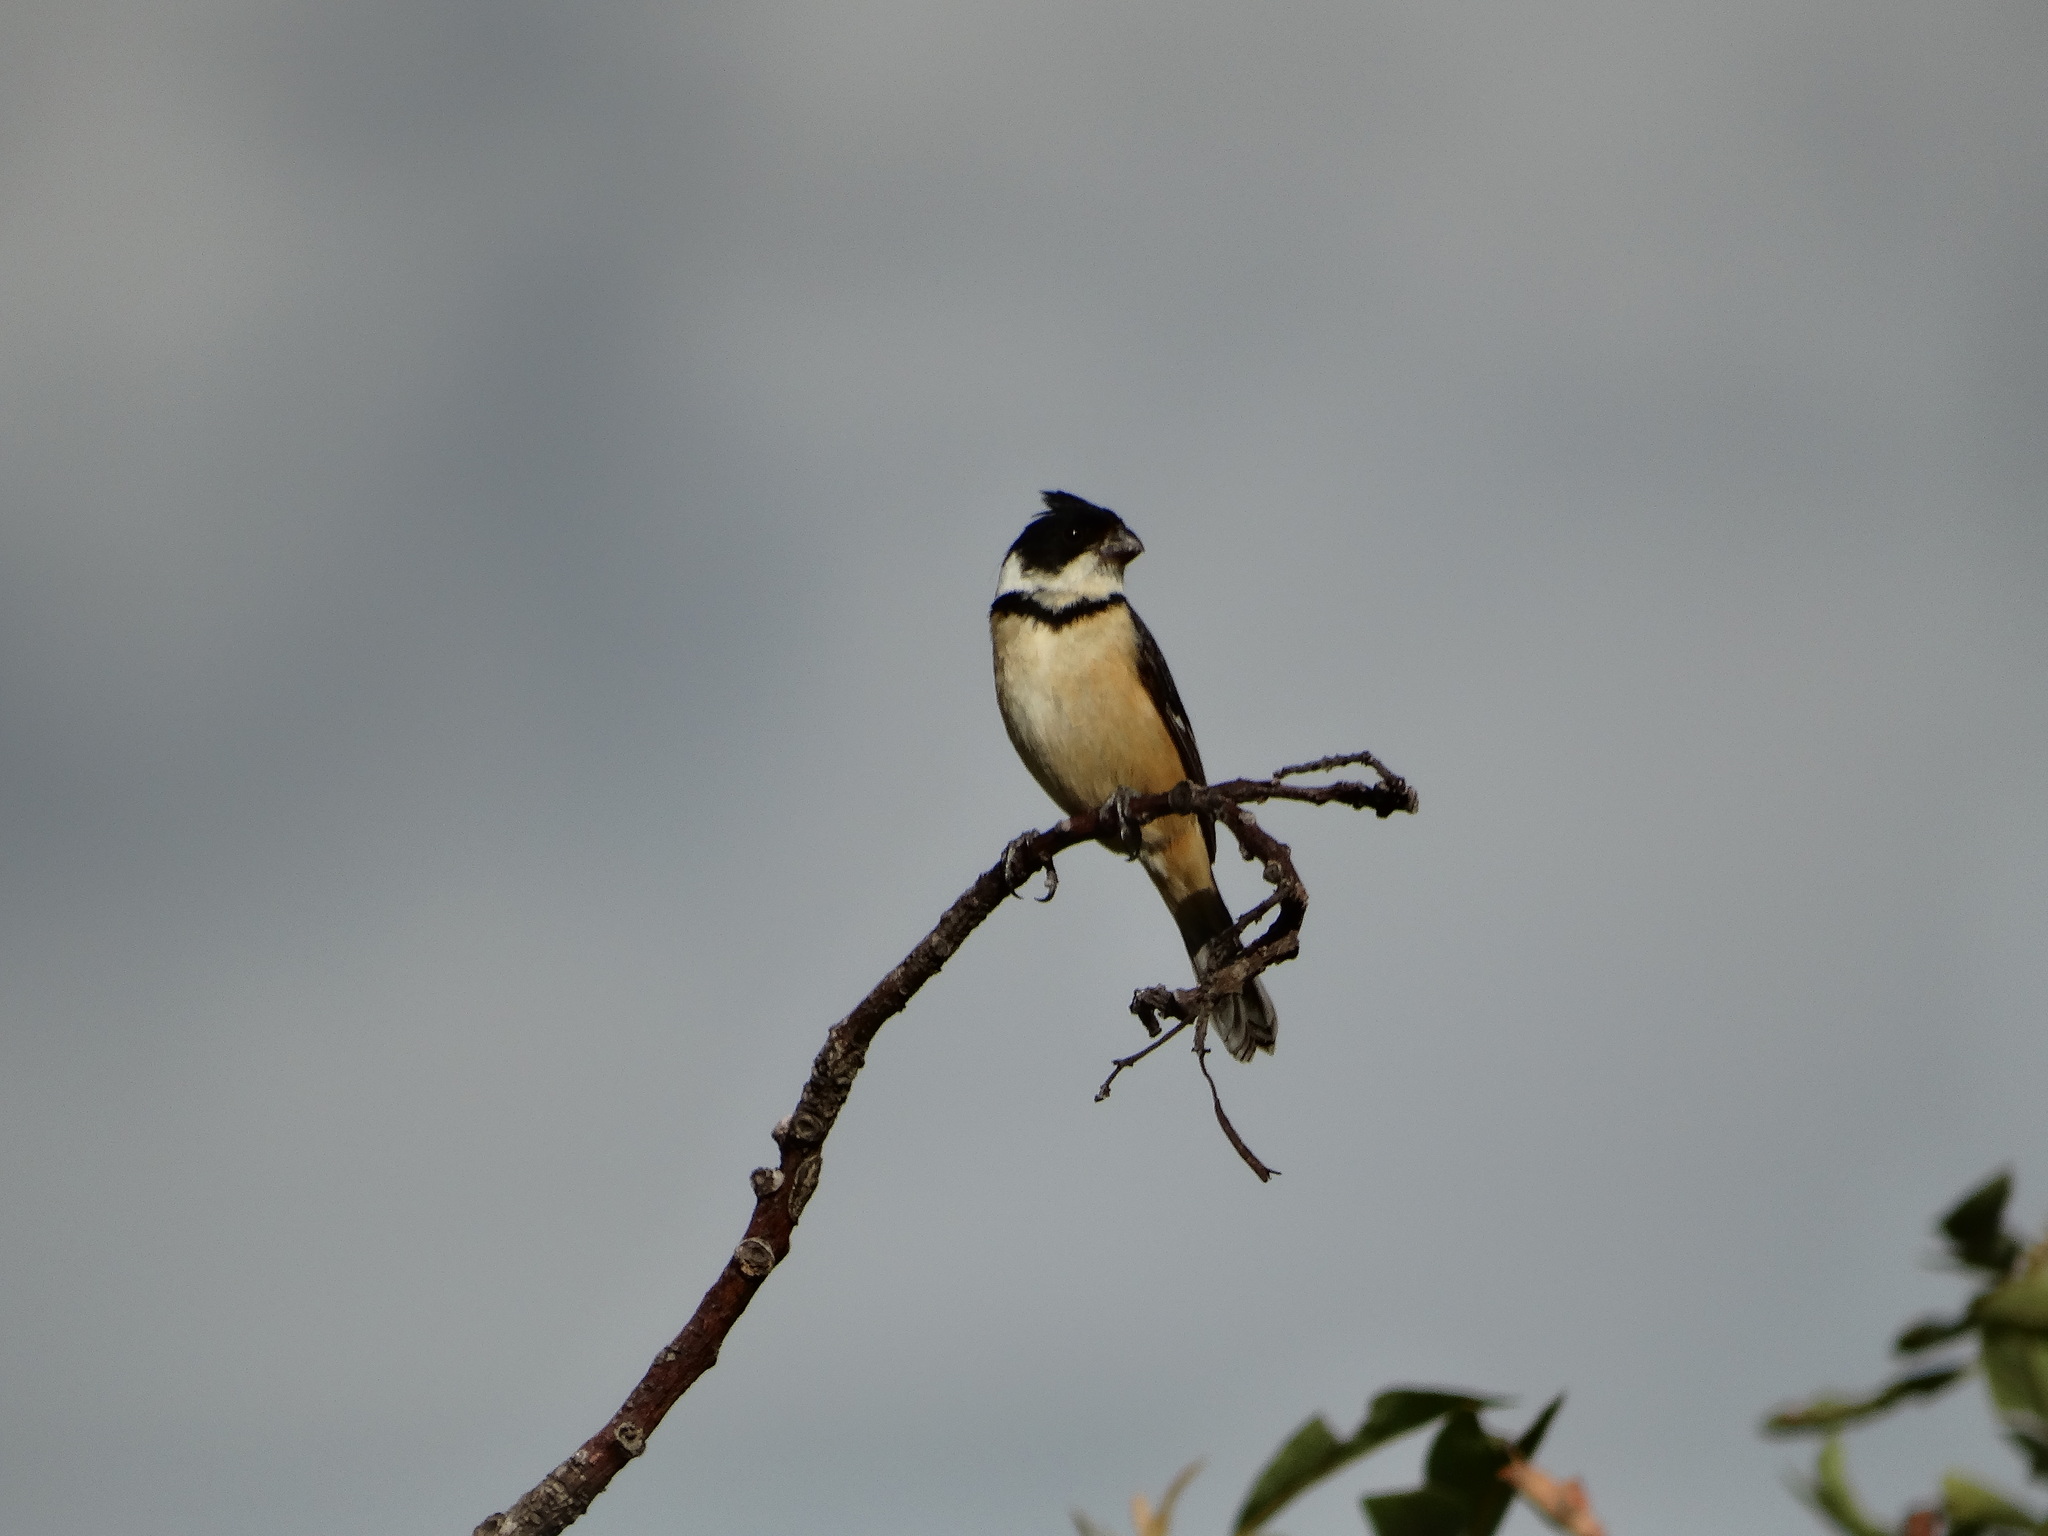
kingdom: Animalia
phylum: Chordata
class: Aves
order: Passeriformes
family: Thraupidae
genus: Sporophila
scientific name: Sporophila torqueola
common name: White-collared seedeater
